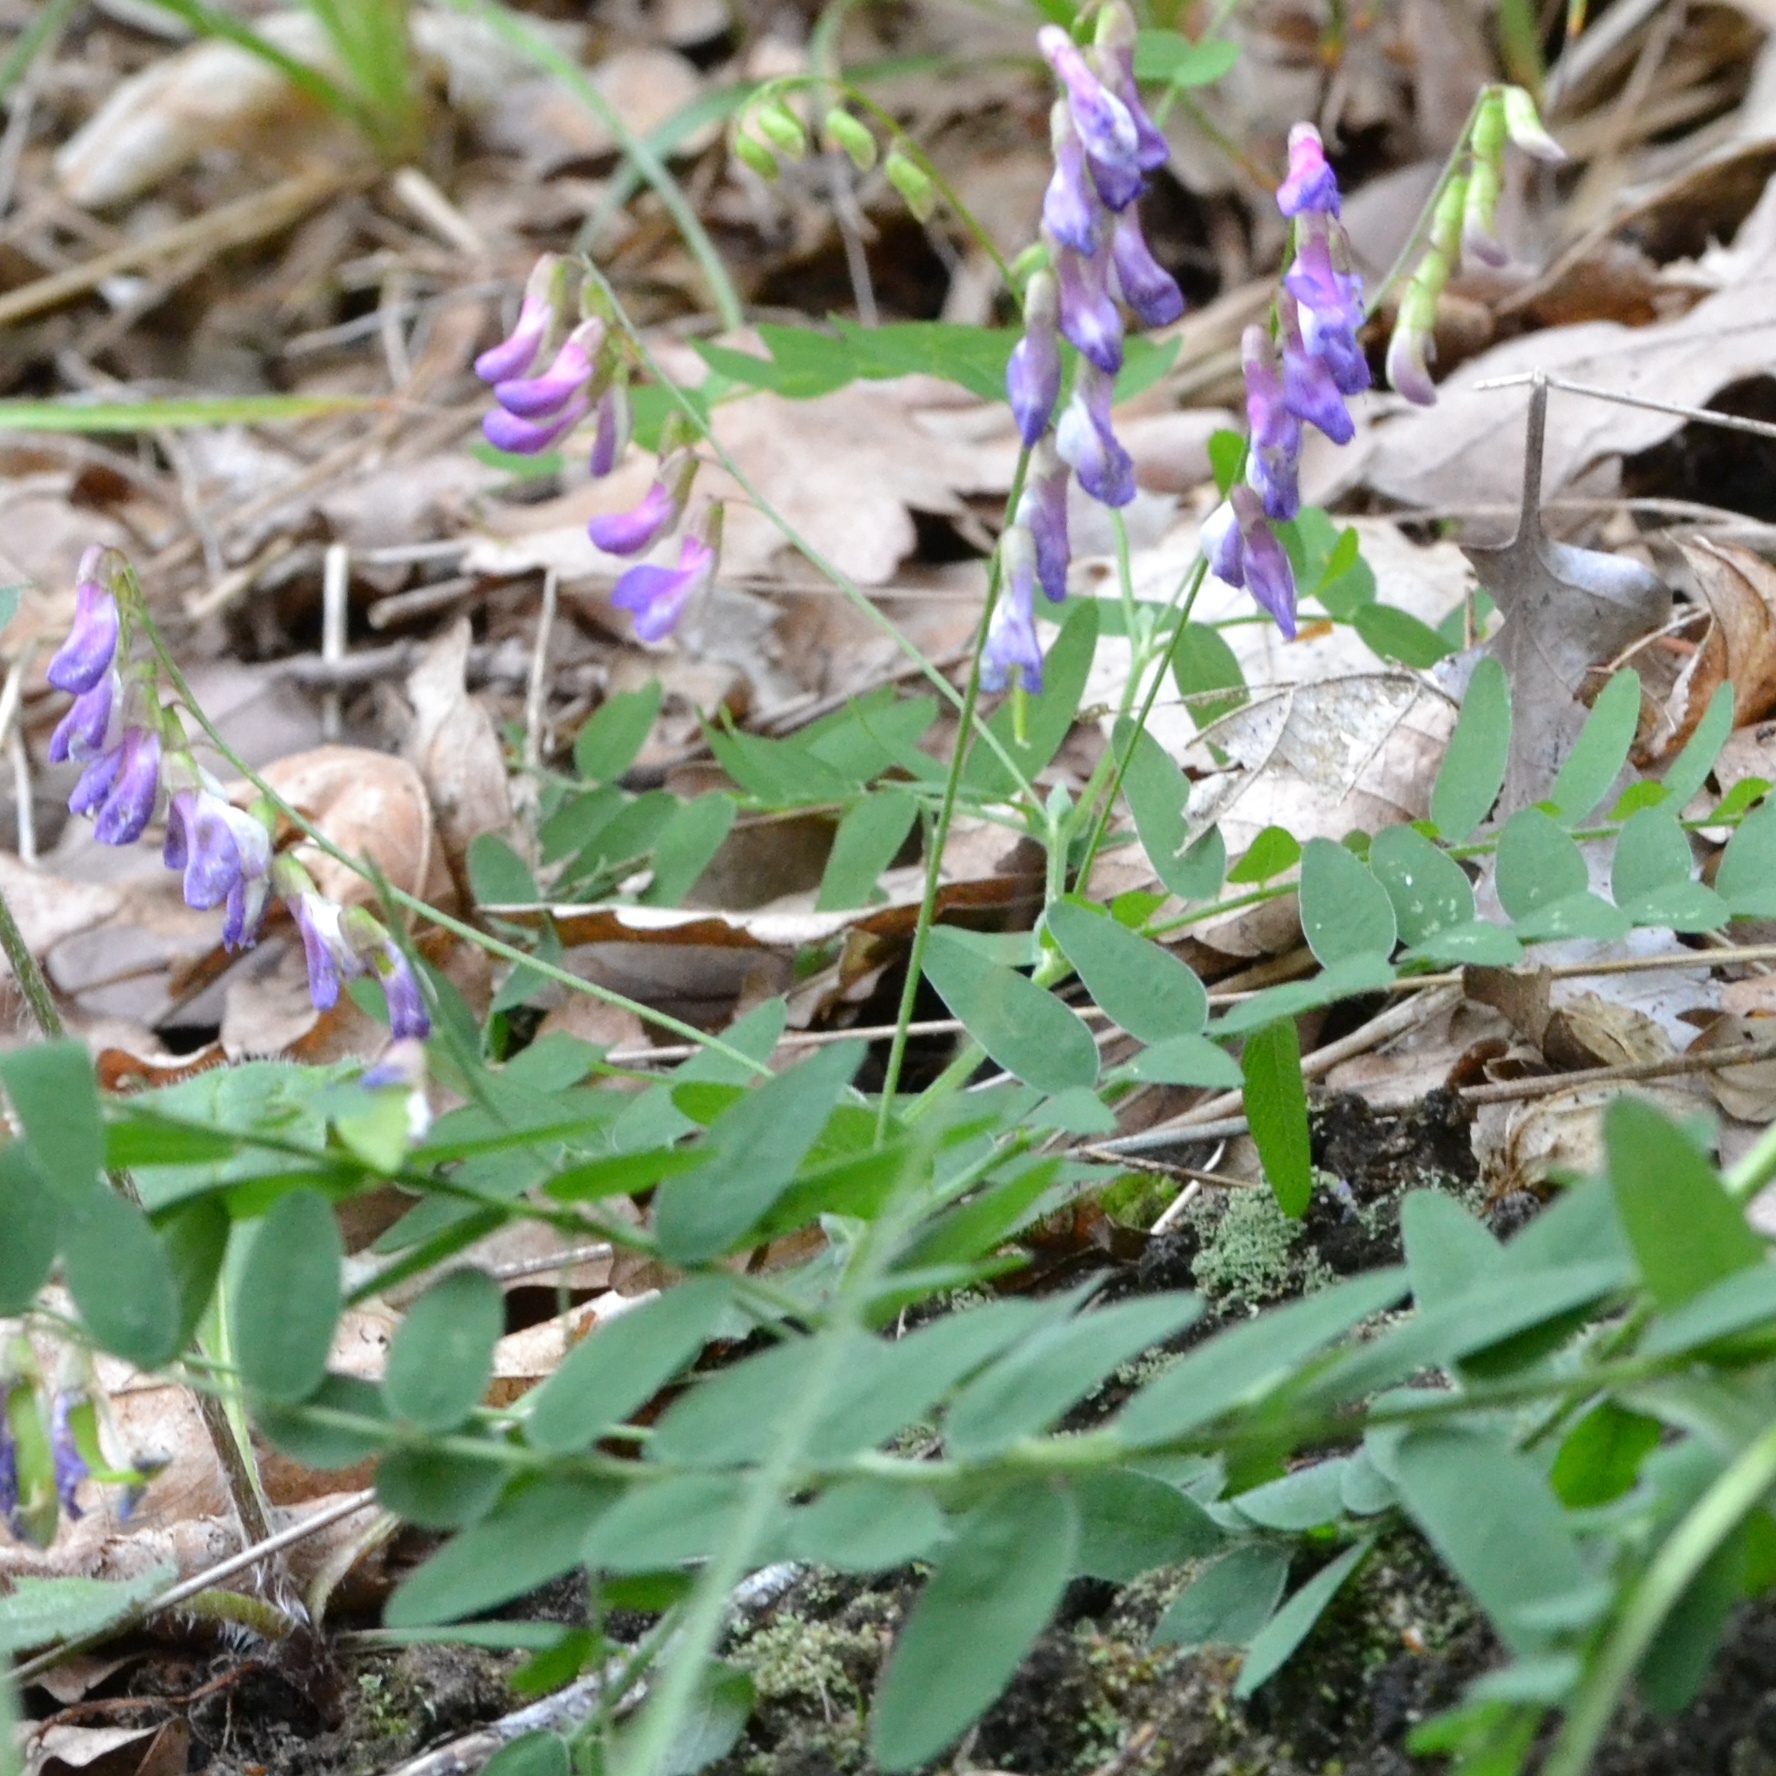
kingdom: Plantae
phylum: Tracheophyta
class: Magnoliopsida
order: Fabales
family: Fabaceae
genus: Vicia
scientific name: Vicia cassubica
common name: Danzig vetch
